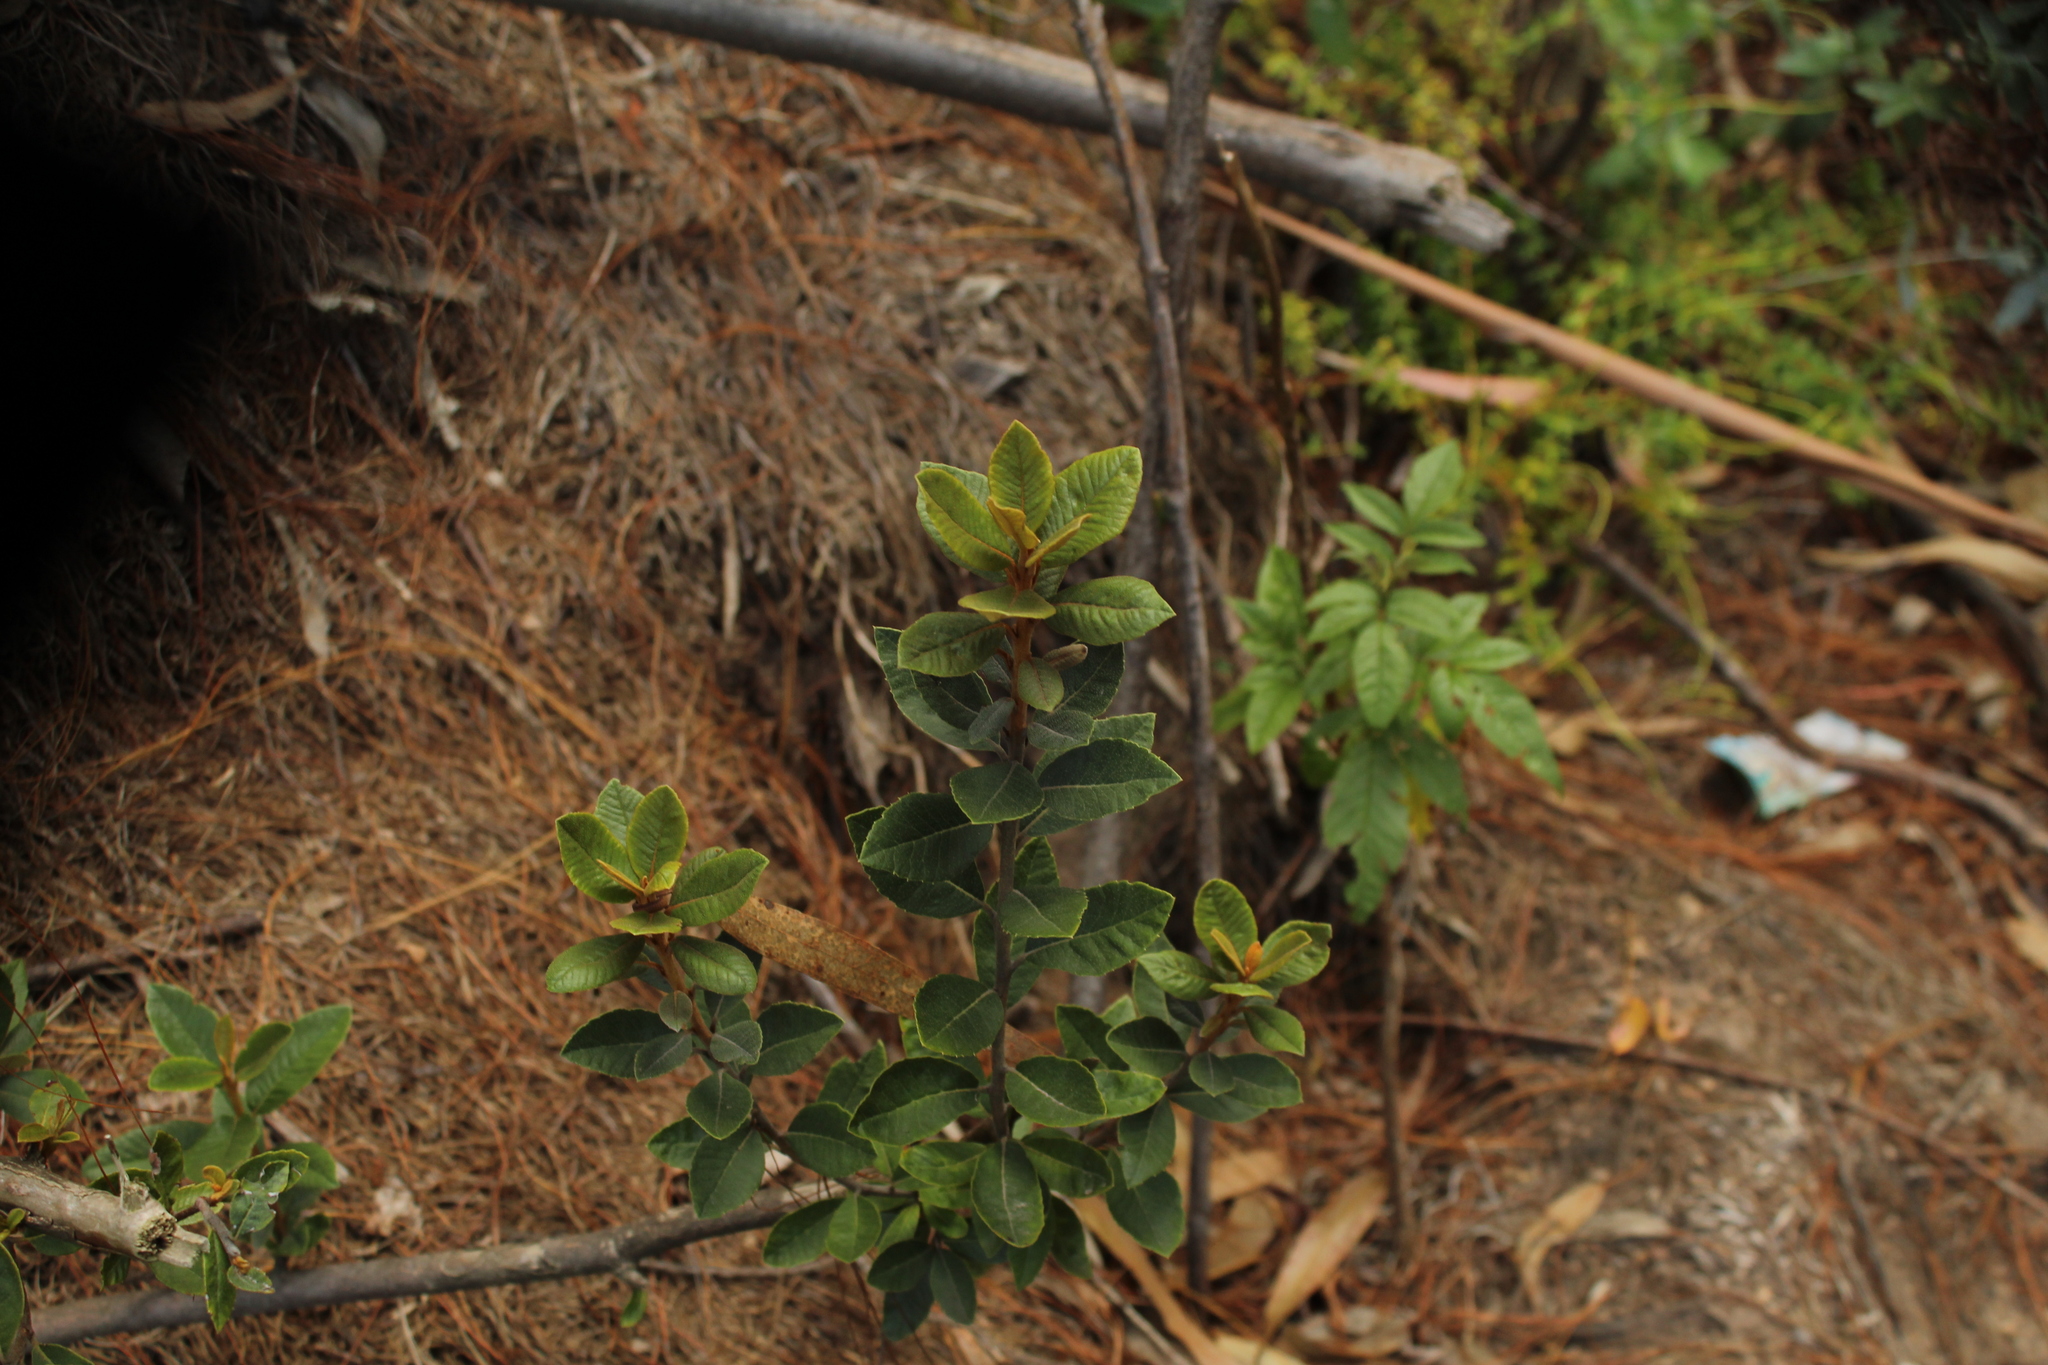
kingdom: Plantae
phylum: Tracheophyta
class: Magnoliopsida
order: Ericales
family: Clethraceae
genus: Clethra
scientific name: Clethra fimbriata
